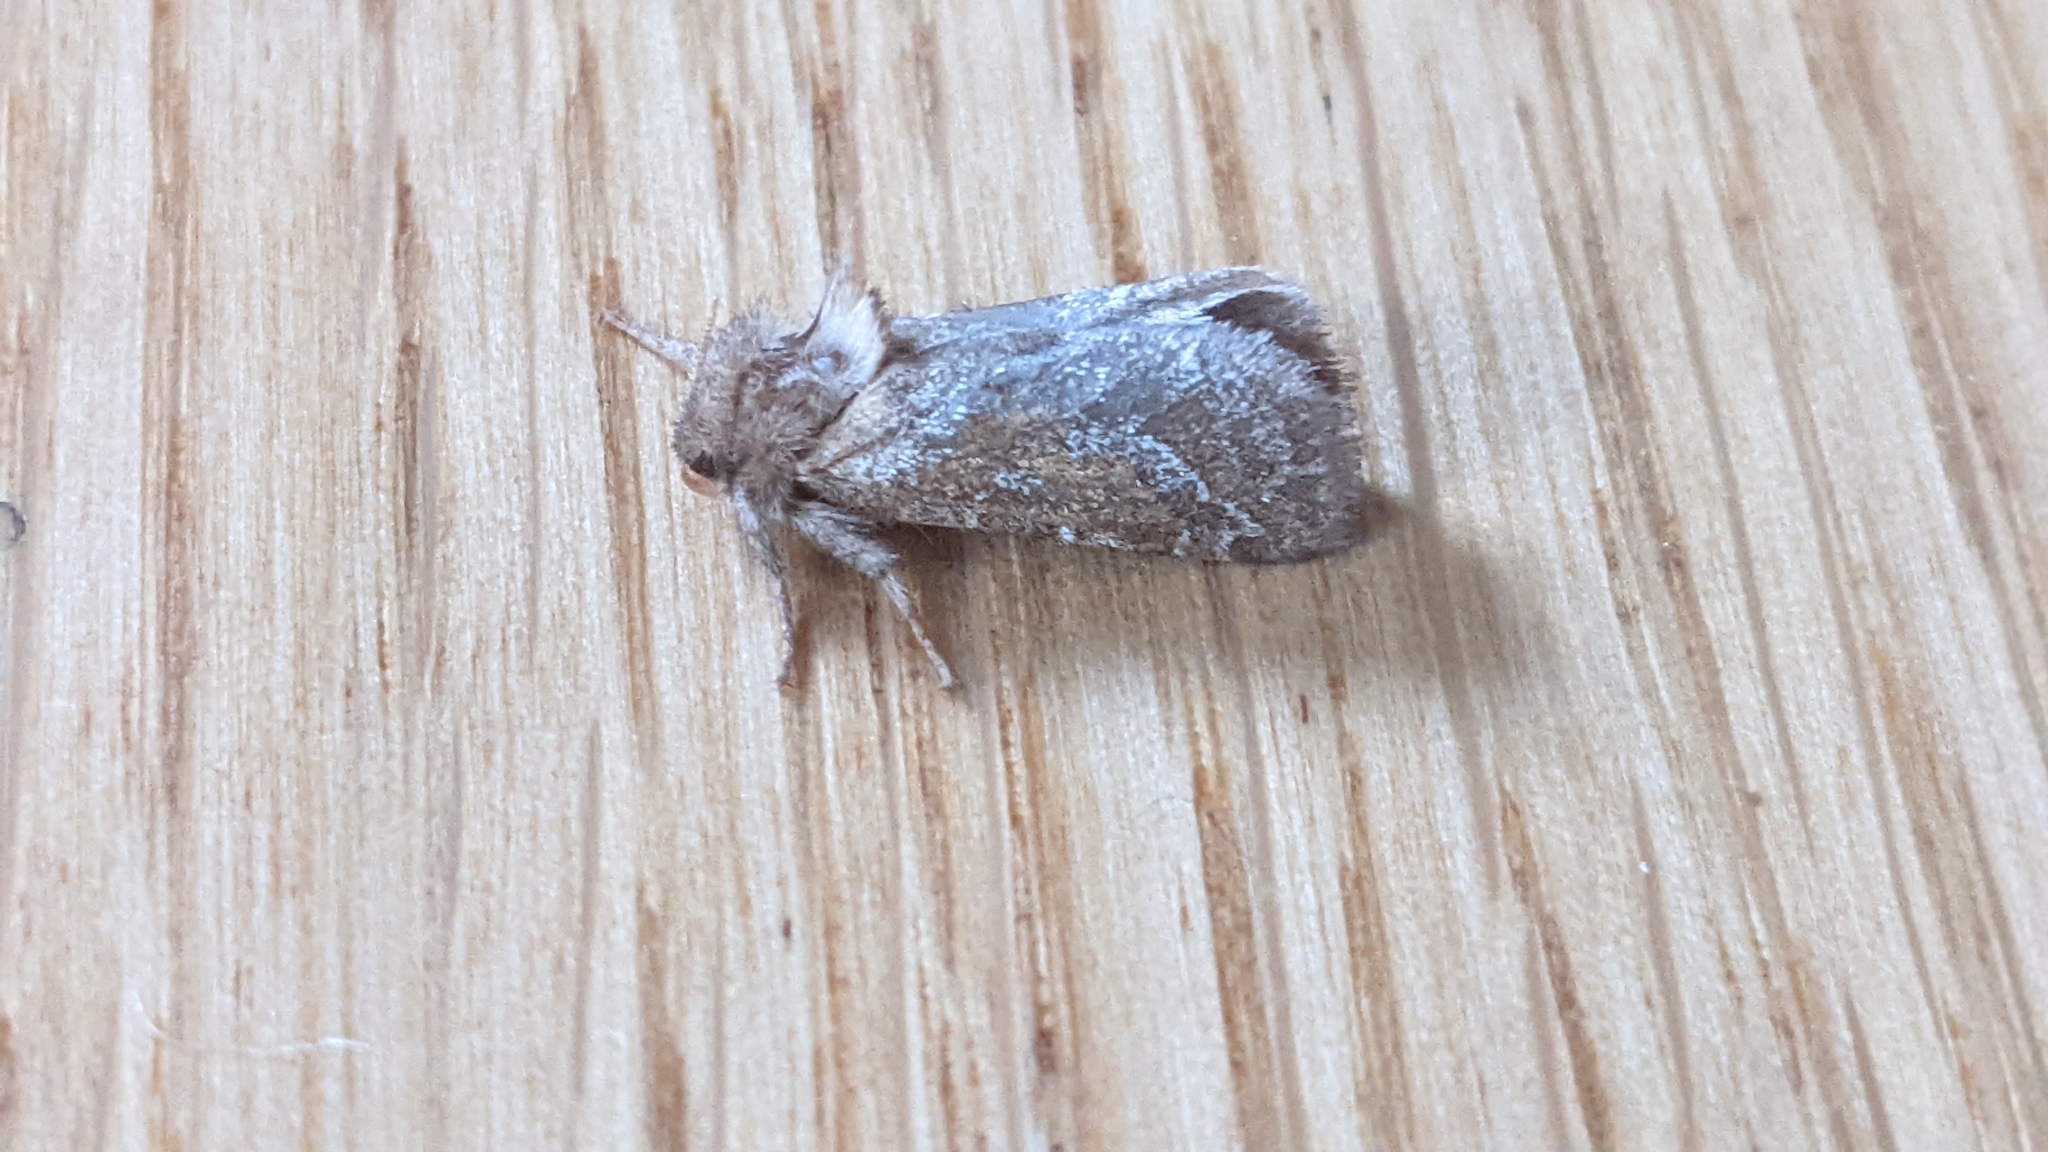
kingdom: Animalia
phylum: Arthropoda
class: Insecta
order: Lepidoptera
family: Hepialidae
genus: Triodia
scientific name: Triodia sylvina
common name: Orange swift
